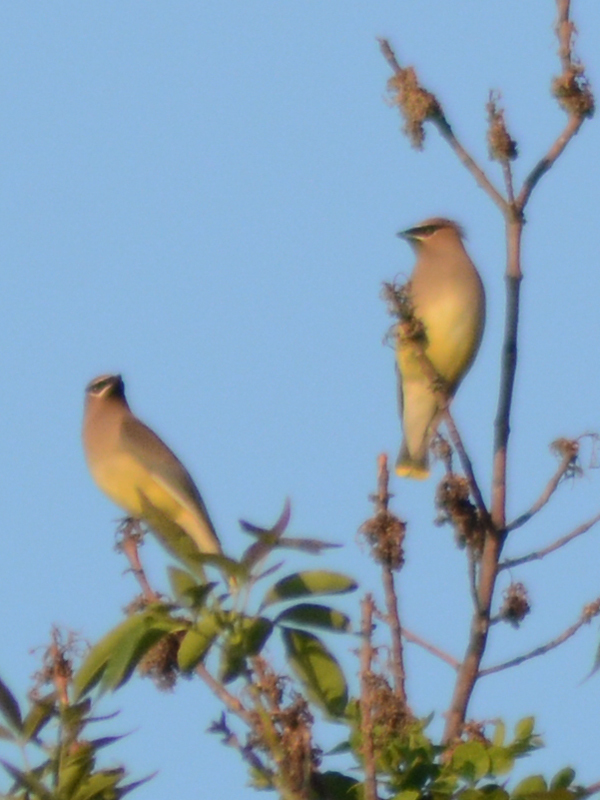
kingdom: Animalia
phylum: Chordata
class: Aves
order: Passeriformes
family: Bombycillidae
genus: Bombycilla
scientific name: Bombycilla cedrorum
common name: Cedar waxwing
